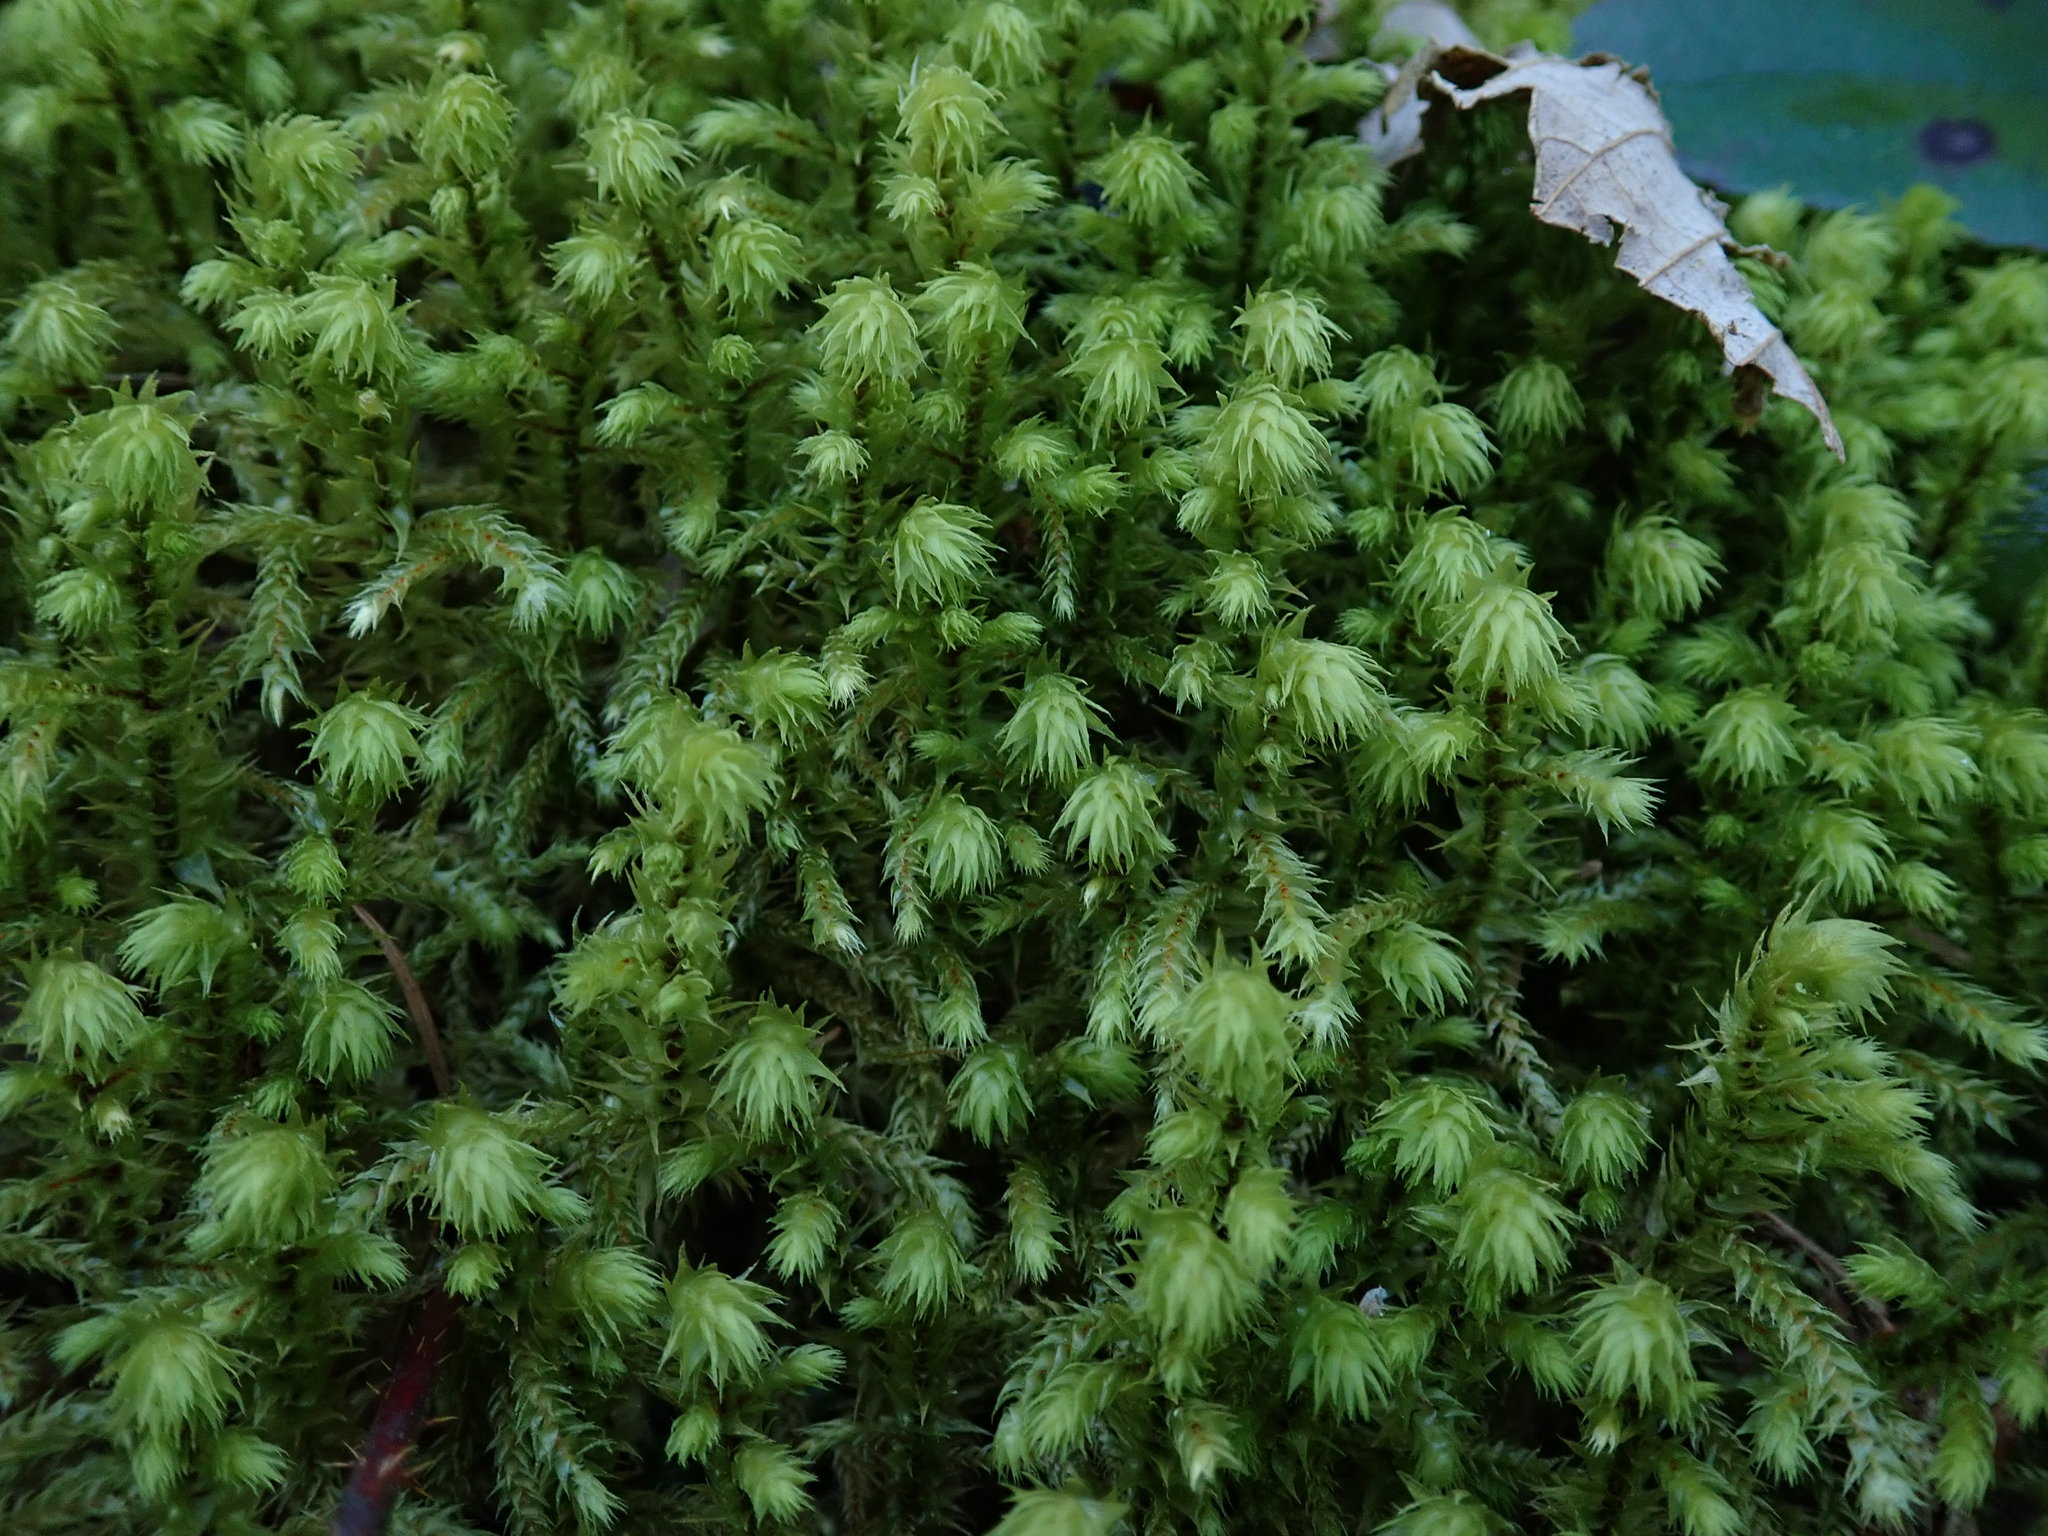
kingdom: Plantae
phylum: Bryophyta
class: Bryopsida
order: Hypnales
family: Hylocomiaceae
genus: Hylocomiadelphus
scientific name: Hylocomiadelphus triquetrus
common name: Rough goose neck moss
